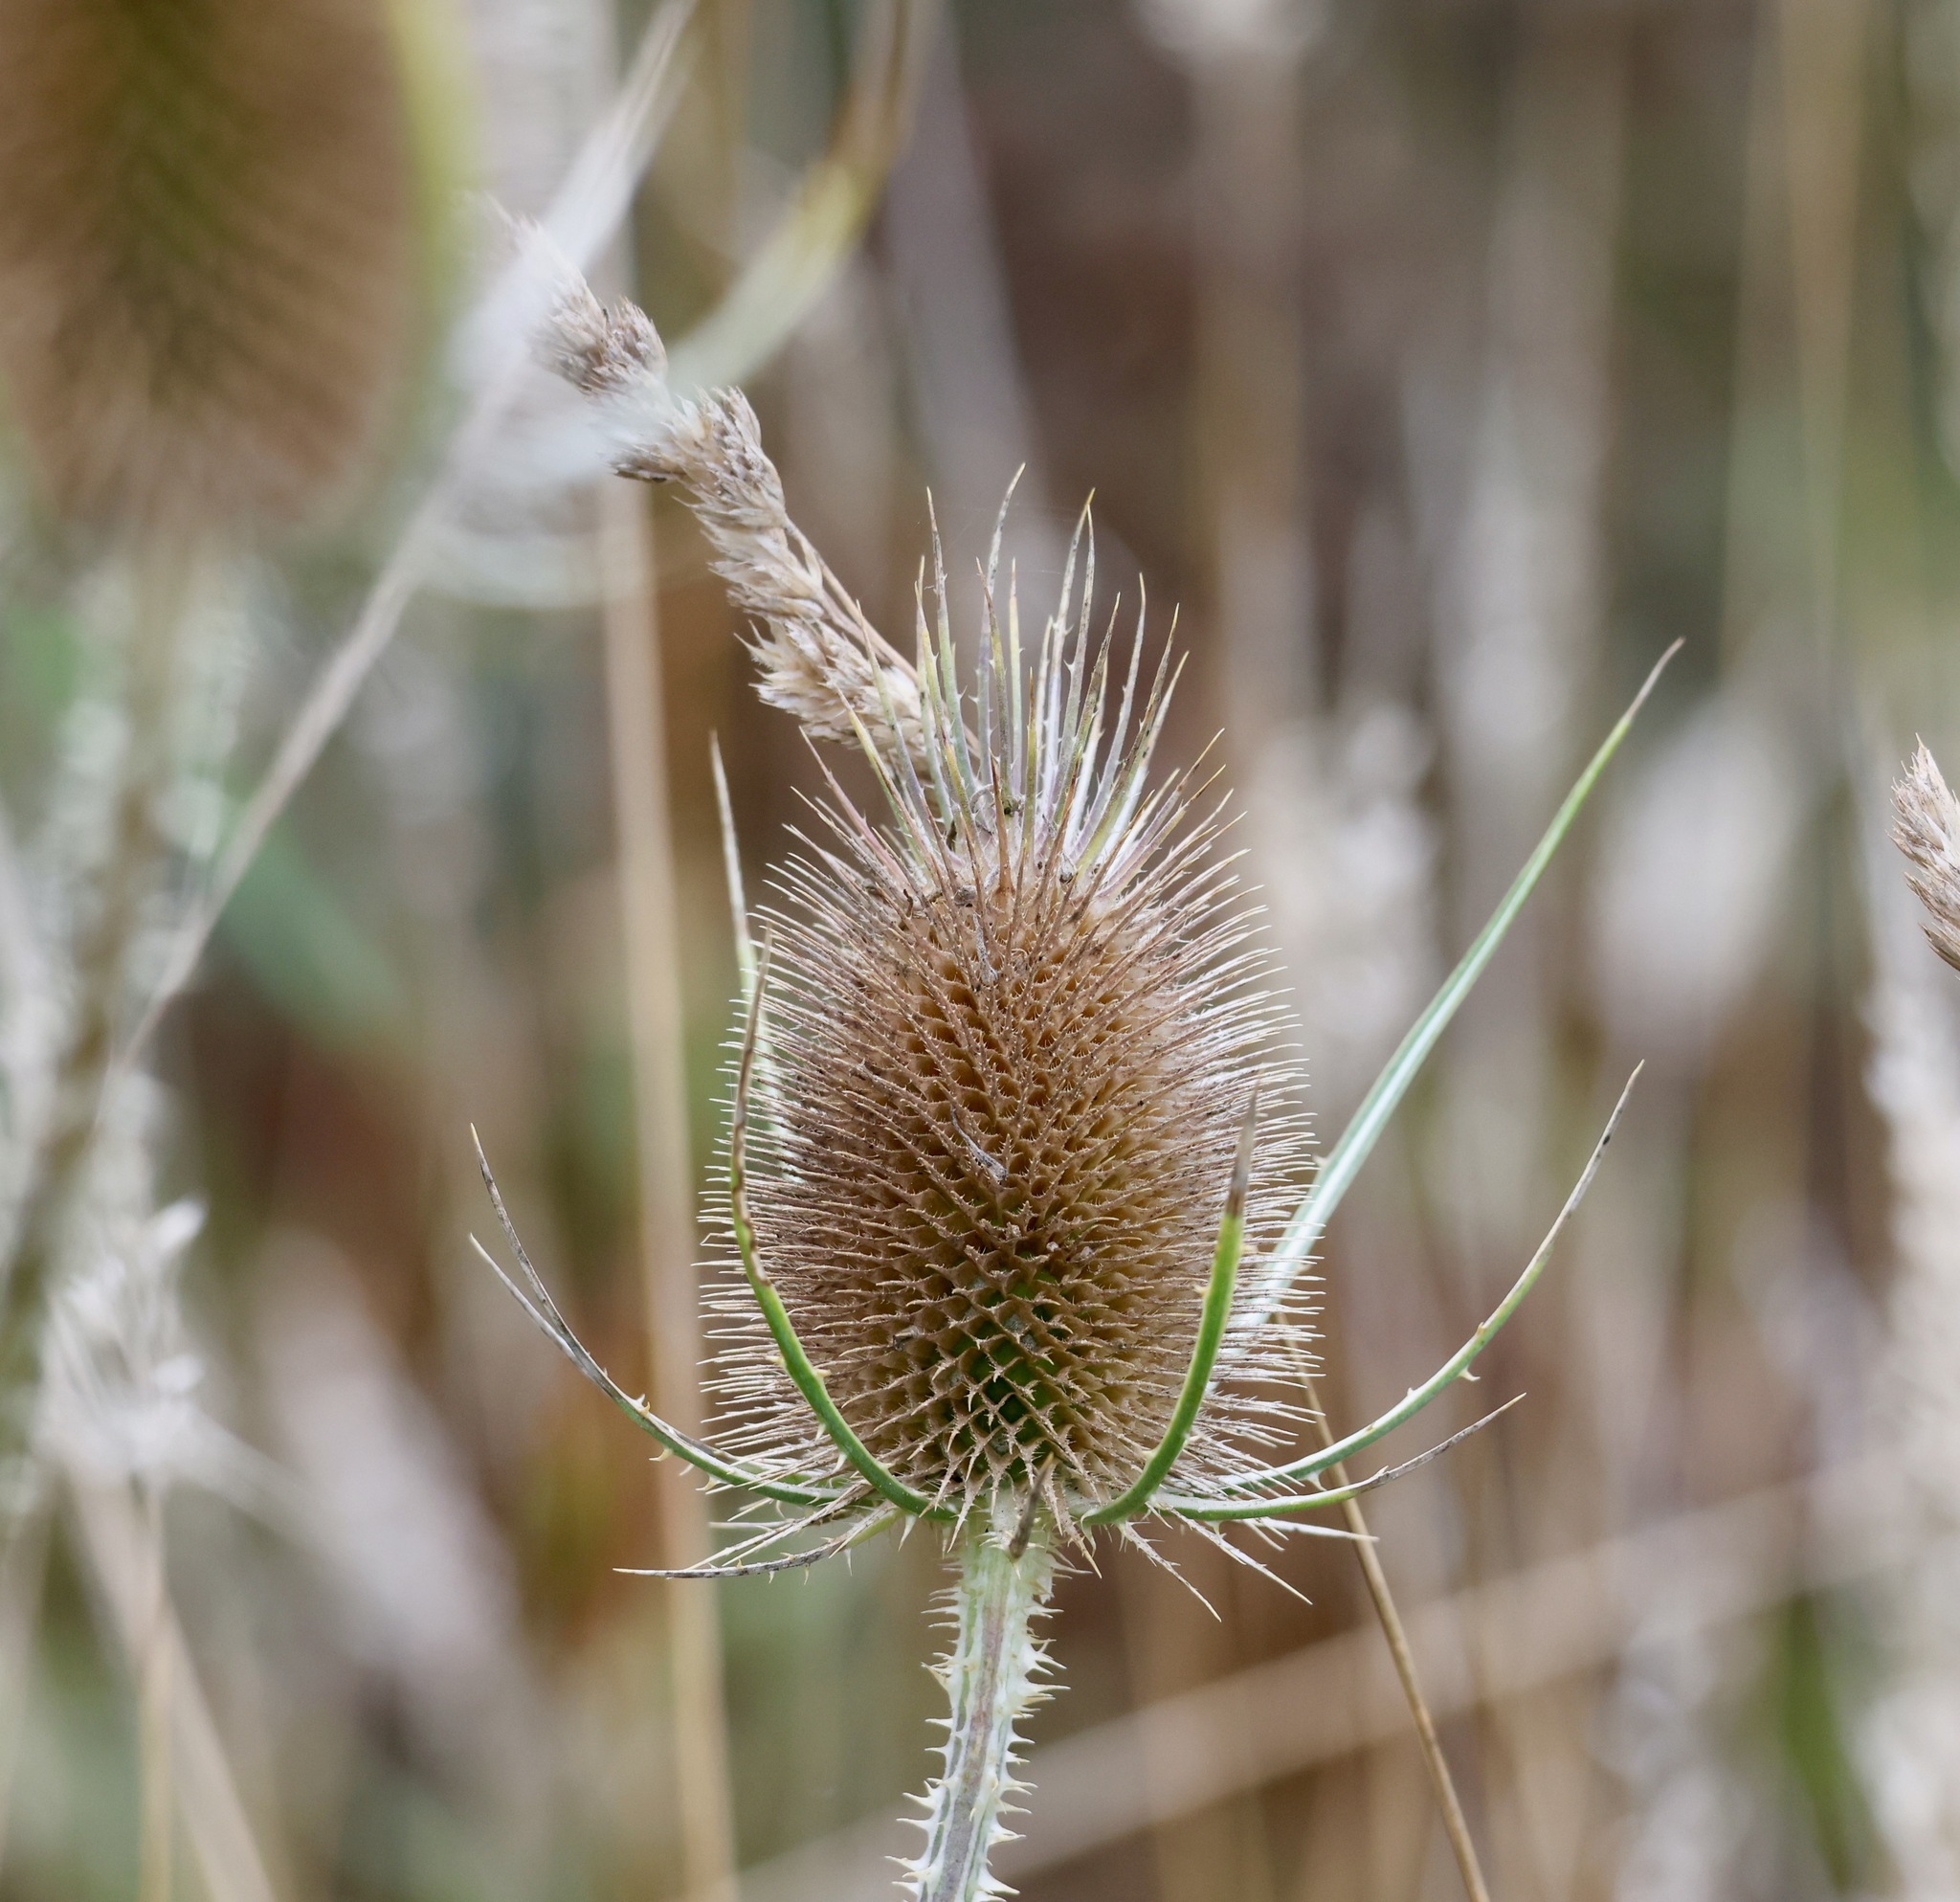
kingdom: Plantae
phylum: Tracheophyta
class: Magnoliopsida
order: Dipsacales
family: Caprifoliaceae
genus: Dipsacus
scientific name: Dipsacus fullonum
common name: Teasel
